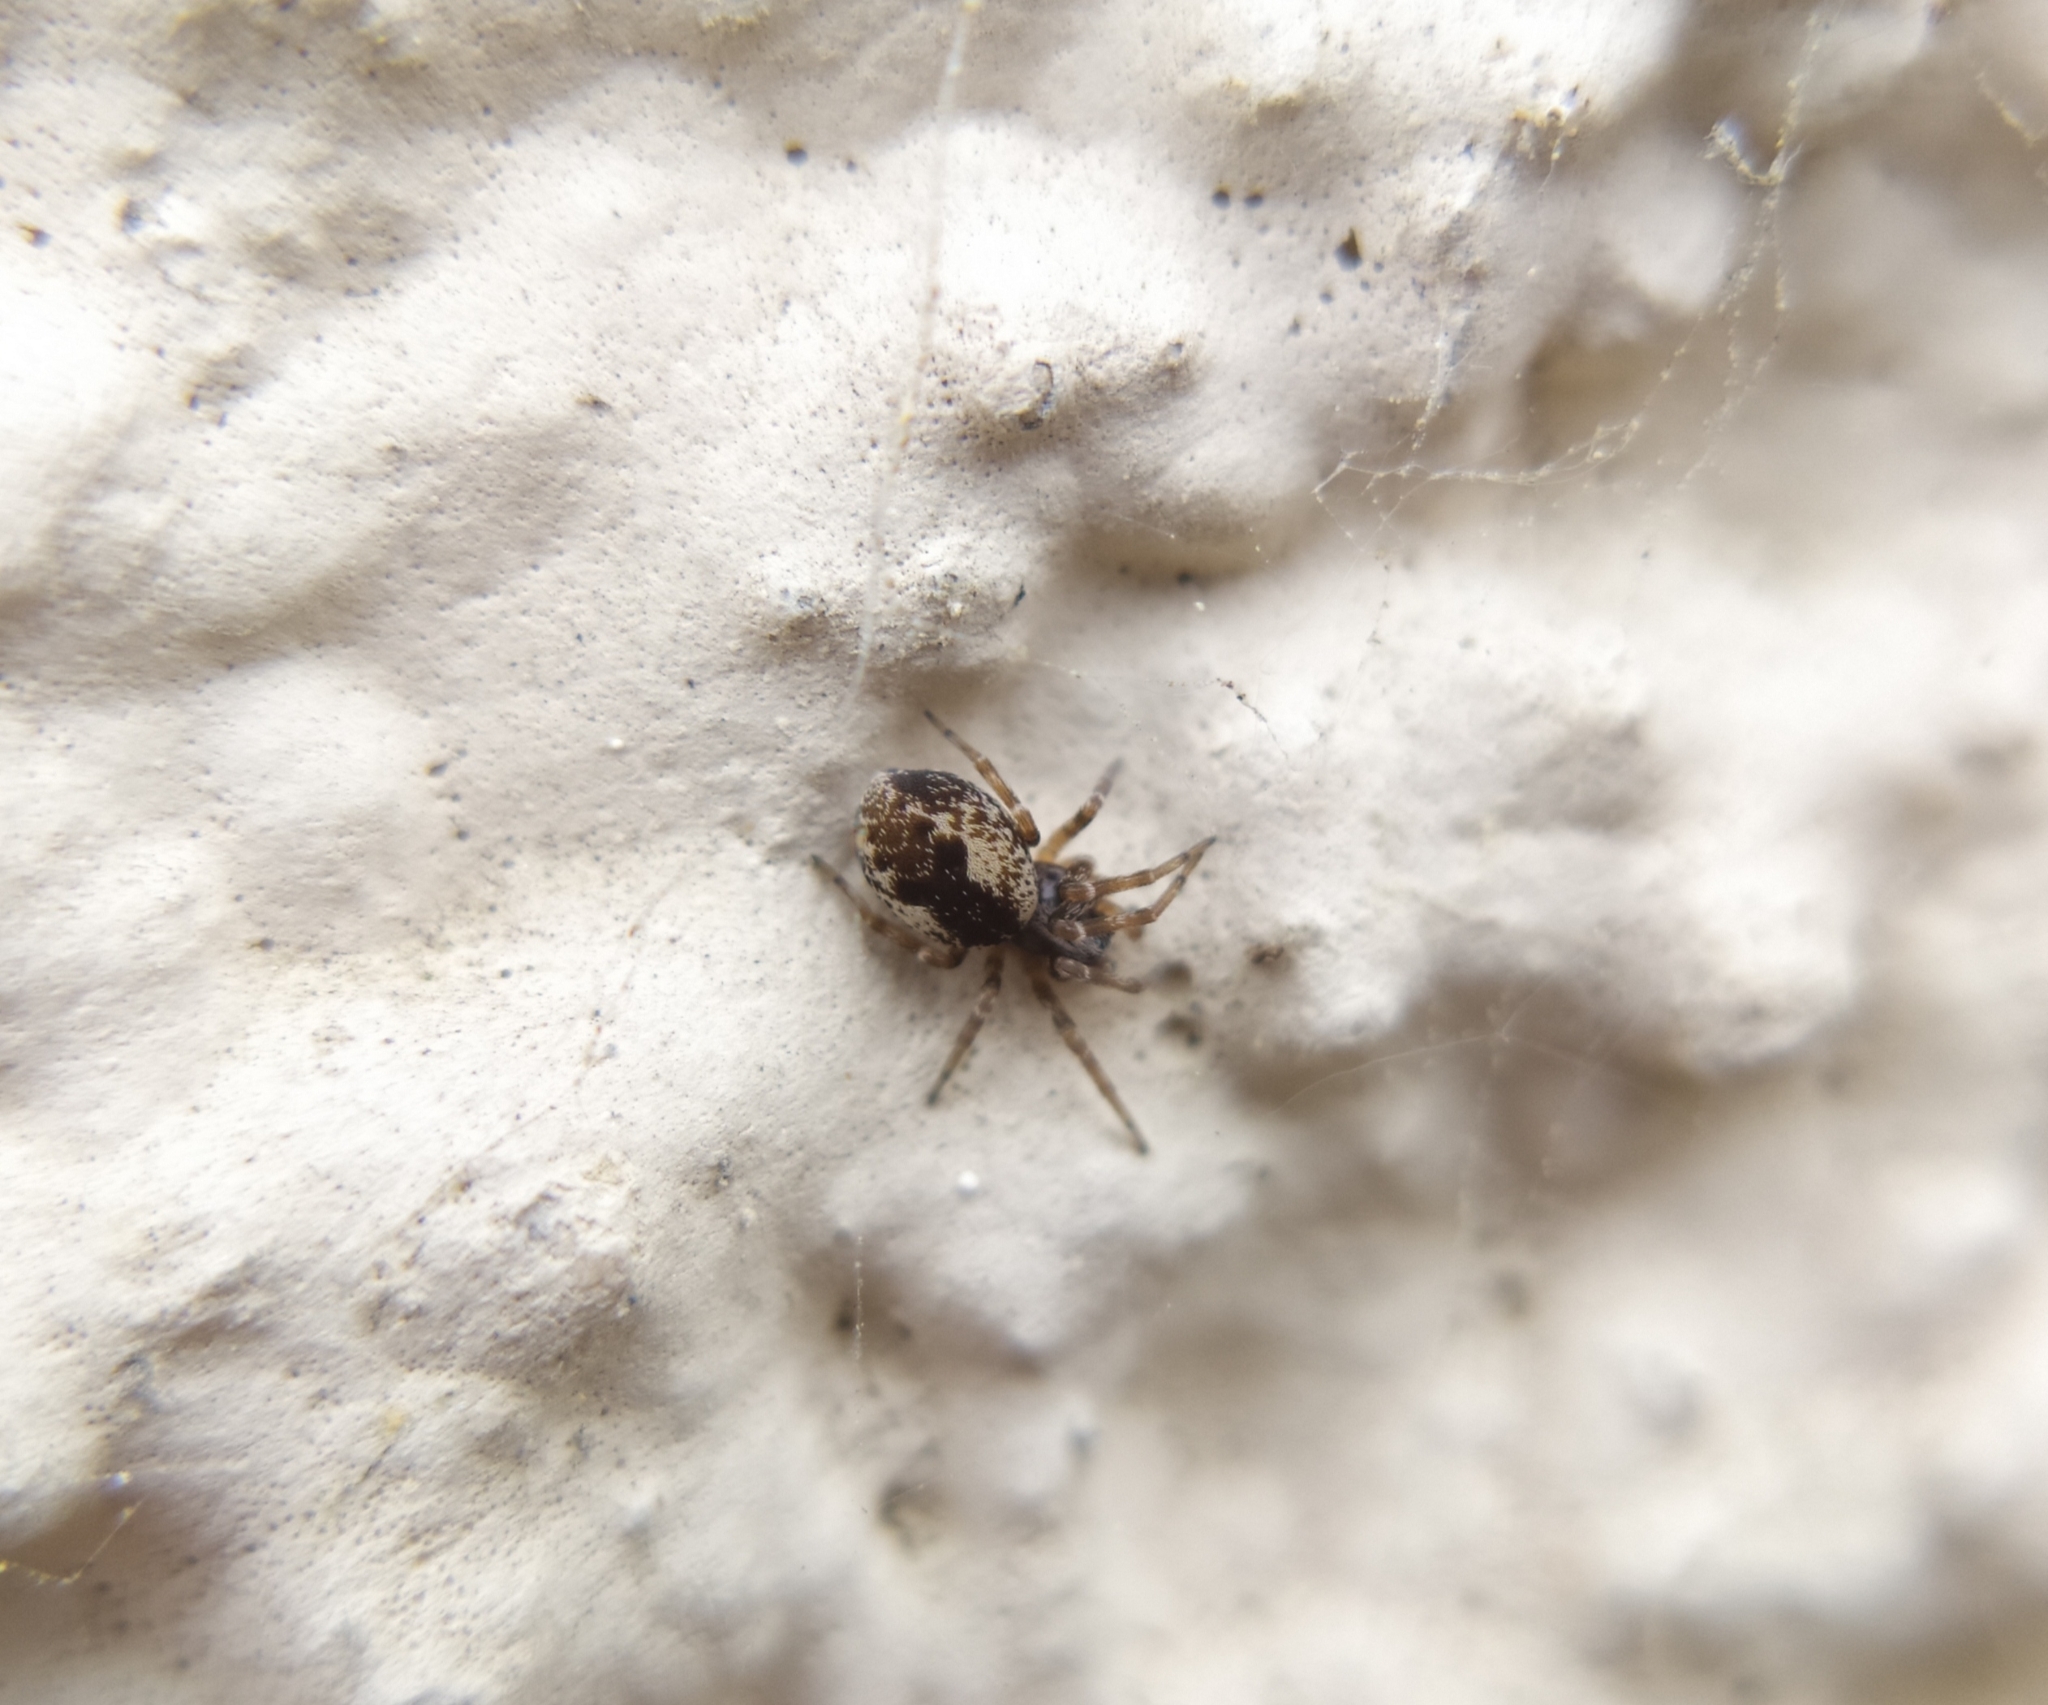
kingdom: Animalia
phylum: Arthropoda
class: Arachnida
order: Araneae
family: Dictynidae
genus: Brigittea
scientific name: Brigittea civica
